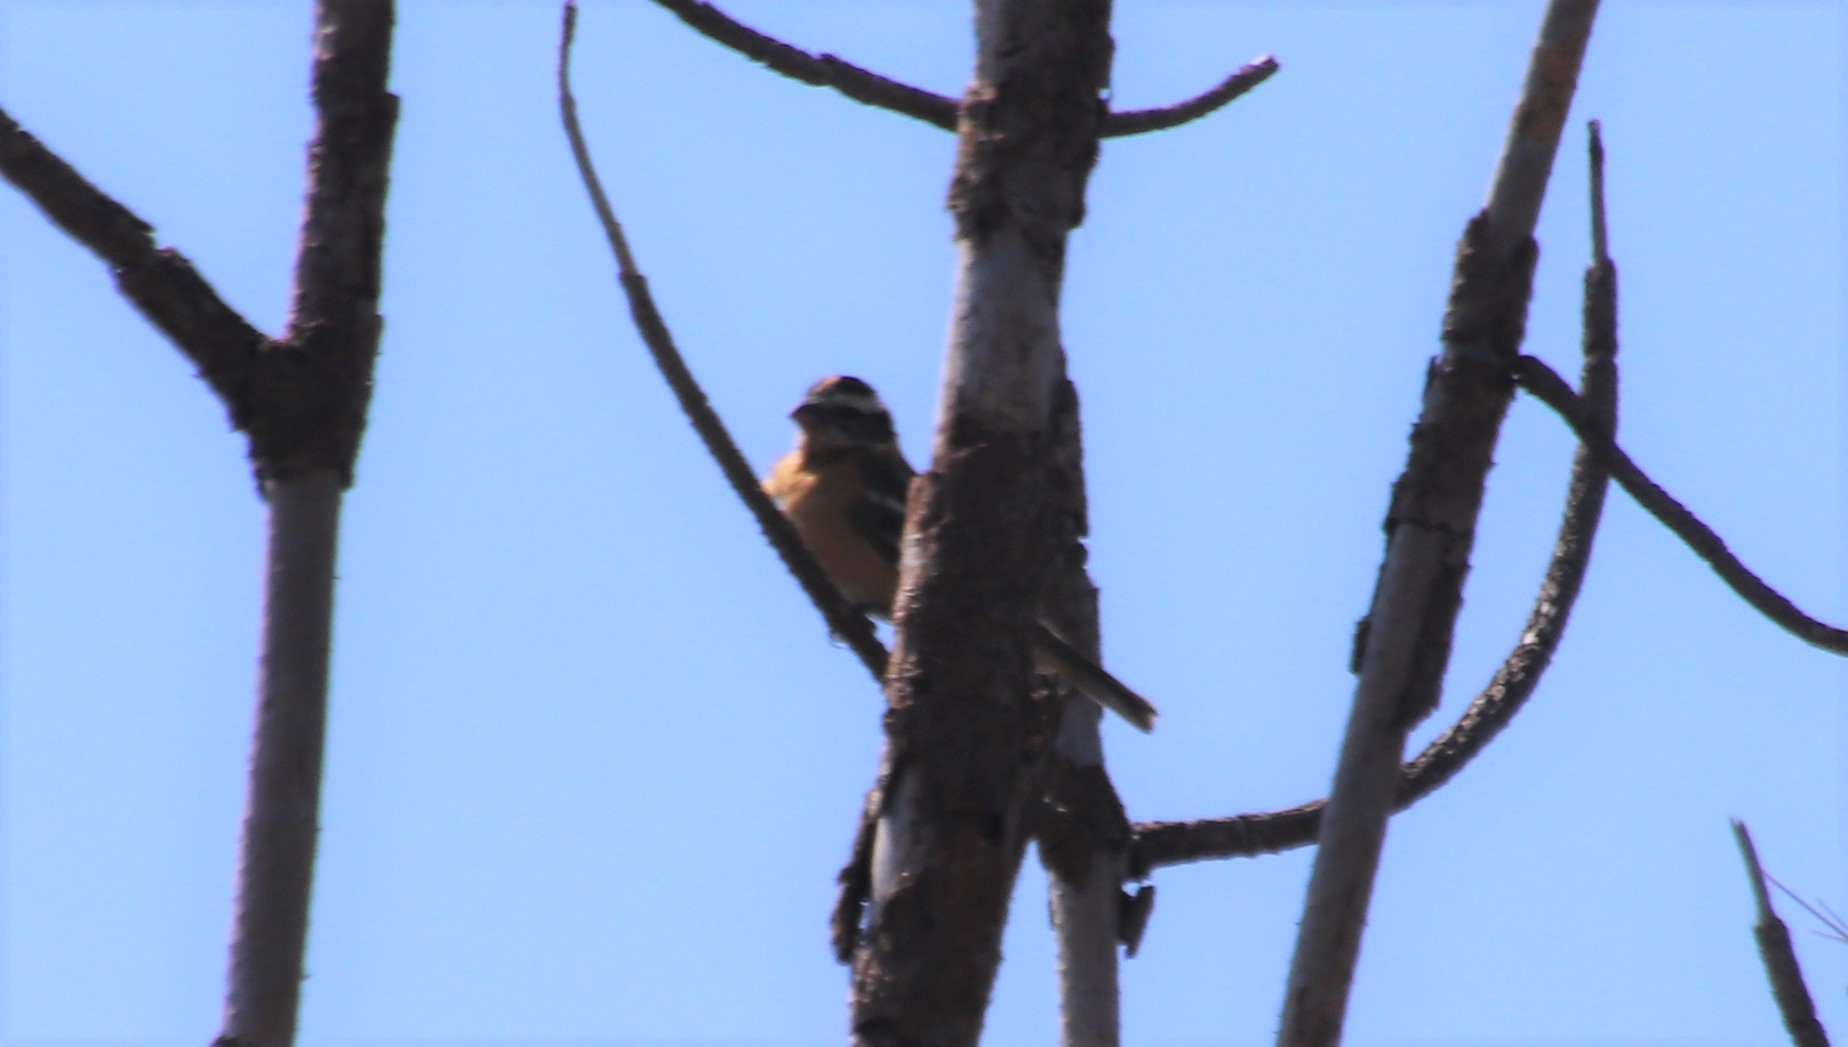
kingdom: Animalia
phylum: Chordata
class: Aves
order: Passeriformes
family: Cardinalidae
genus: Pheucticus
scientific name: Pheucticus melanocephalus
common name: Black-headed grosbeak
